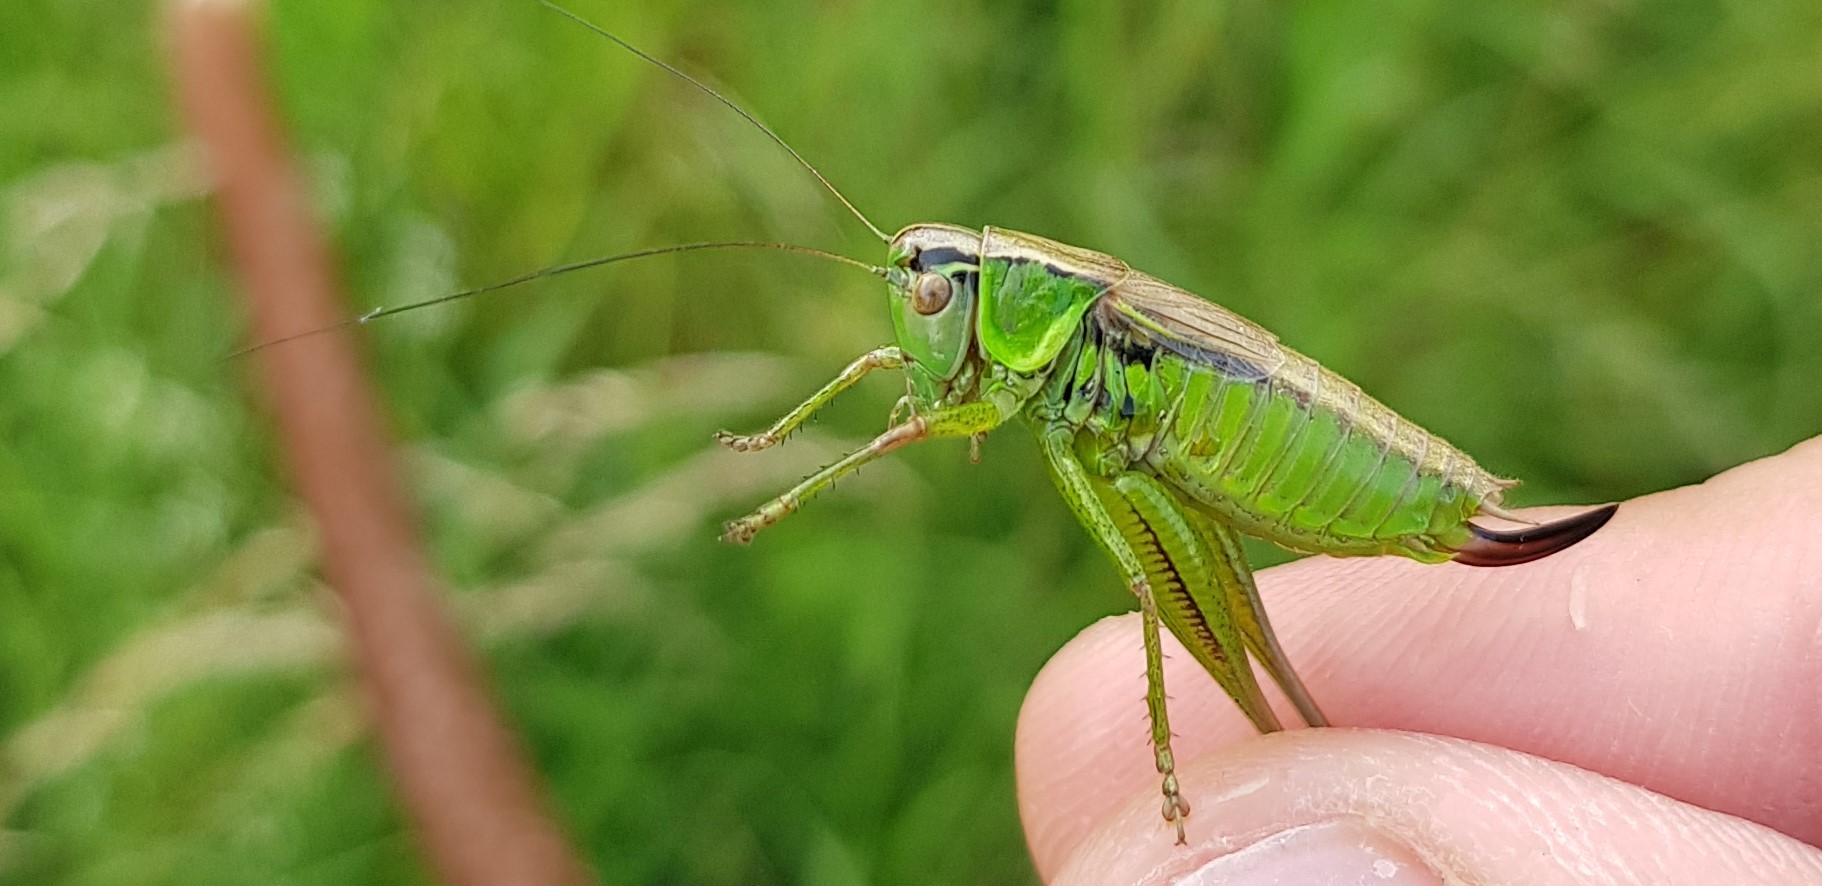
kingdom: Animalia
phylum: Arthropoda
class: Insecta
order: Orthoptera
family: Tettigoniidae
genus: Roeseliana
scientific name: Roeseliana roeselii
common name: Roesel's bush cricket
